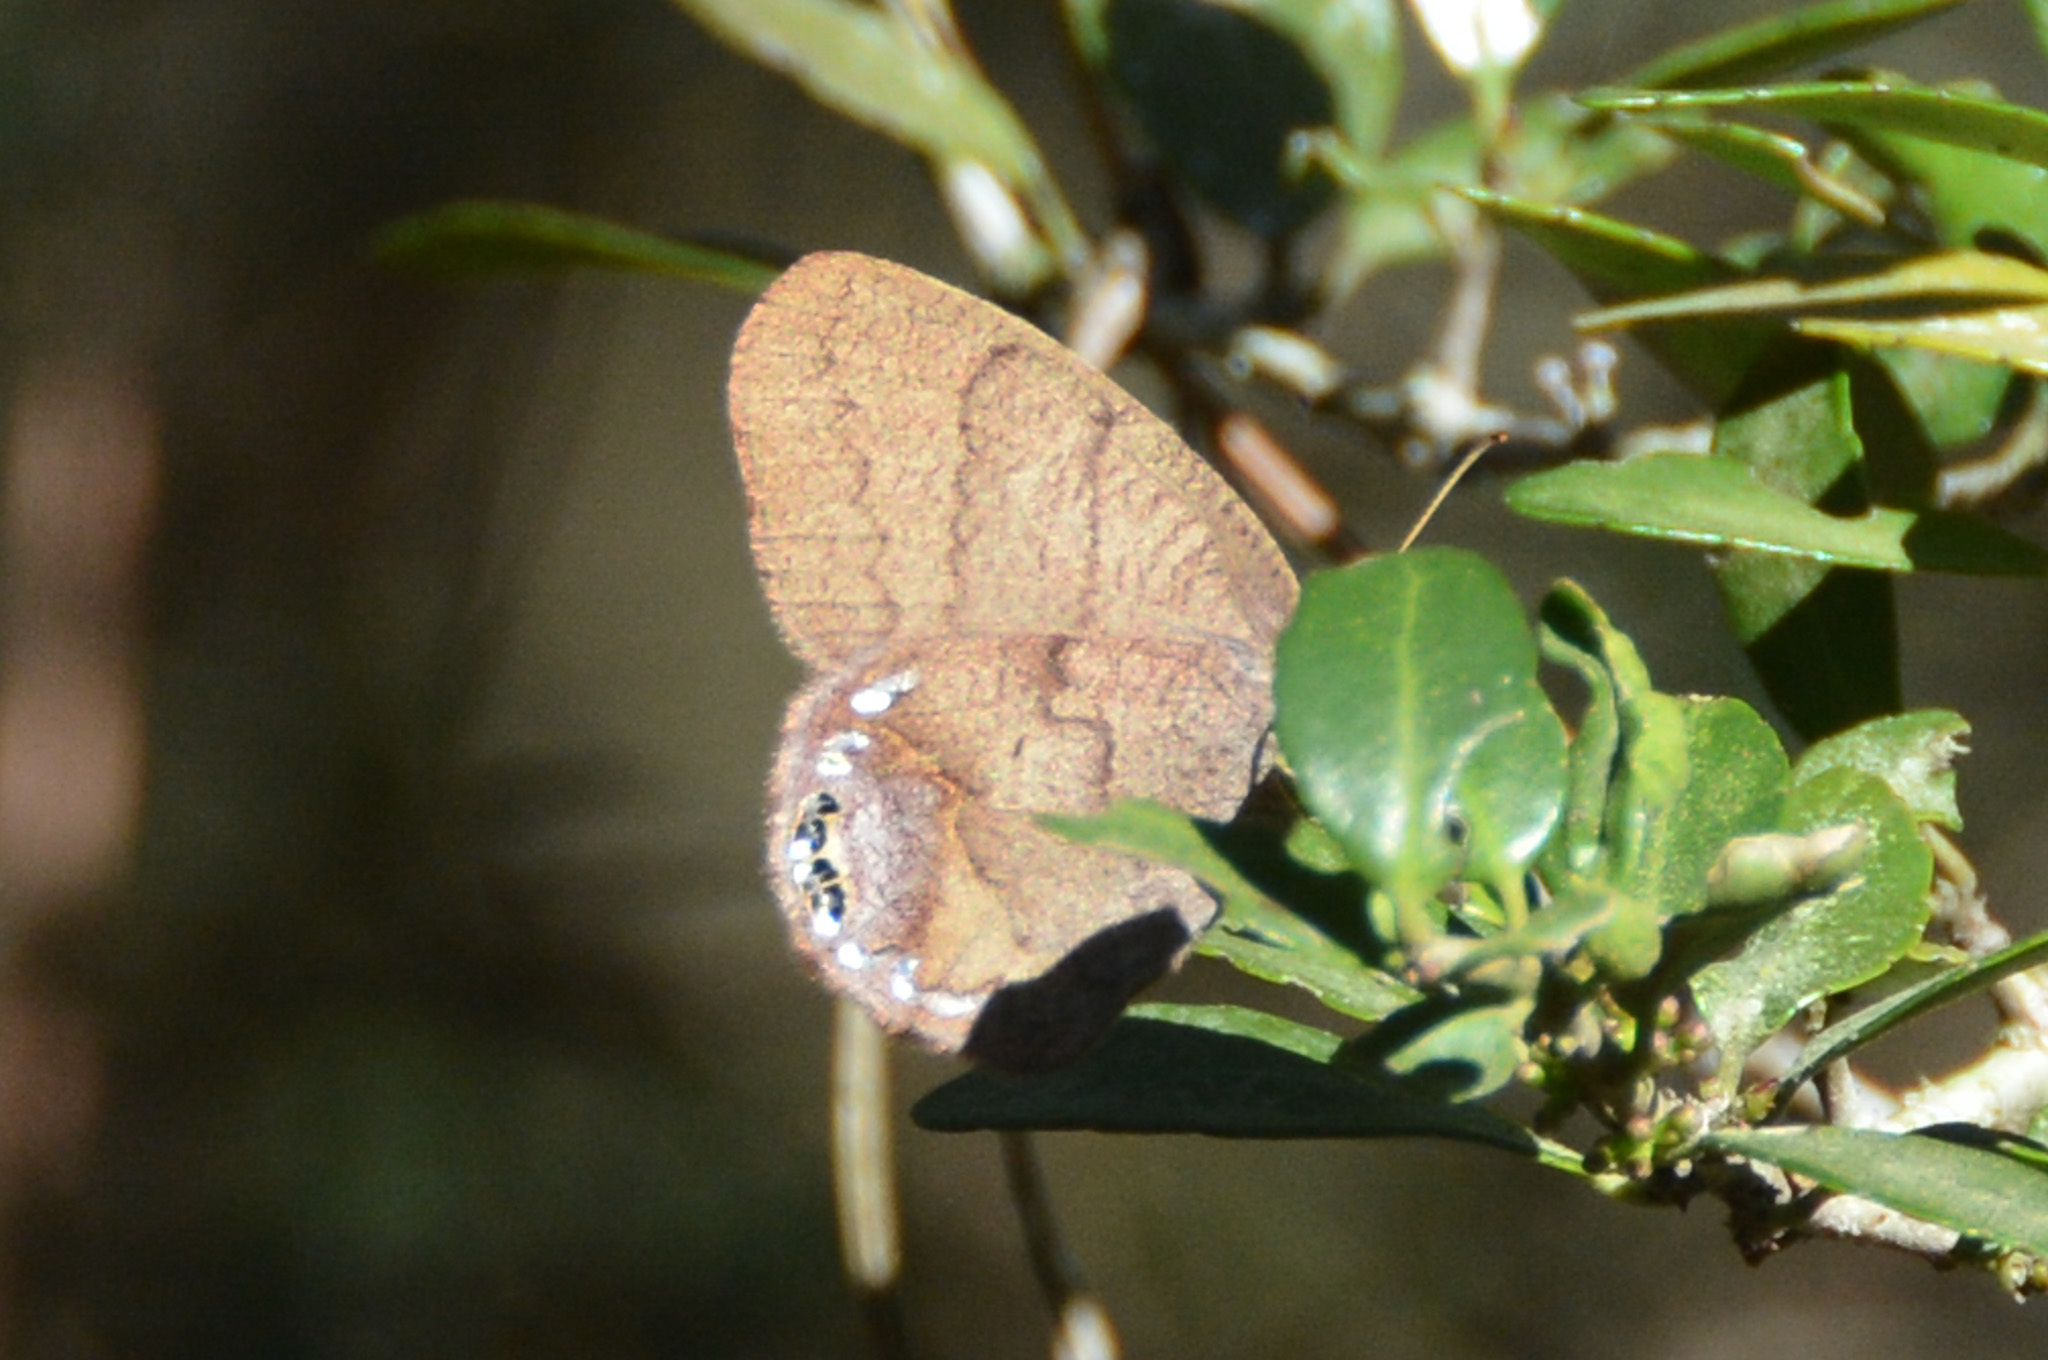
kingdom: Animalia
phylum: Arthropoda
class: Insecta
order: Lepidoptera
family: Nymphalidae
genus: Euptychia
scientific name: Euptychia cornelius
